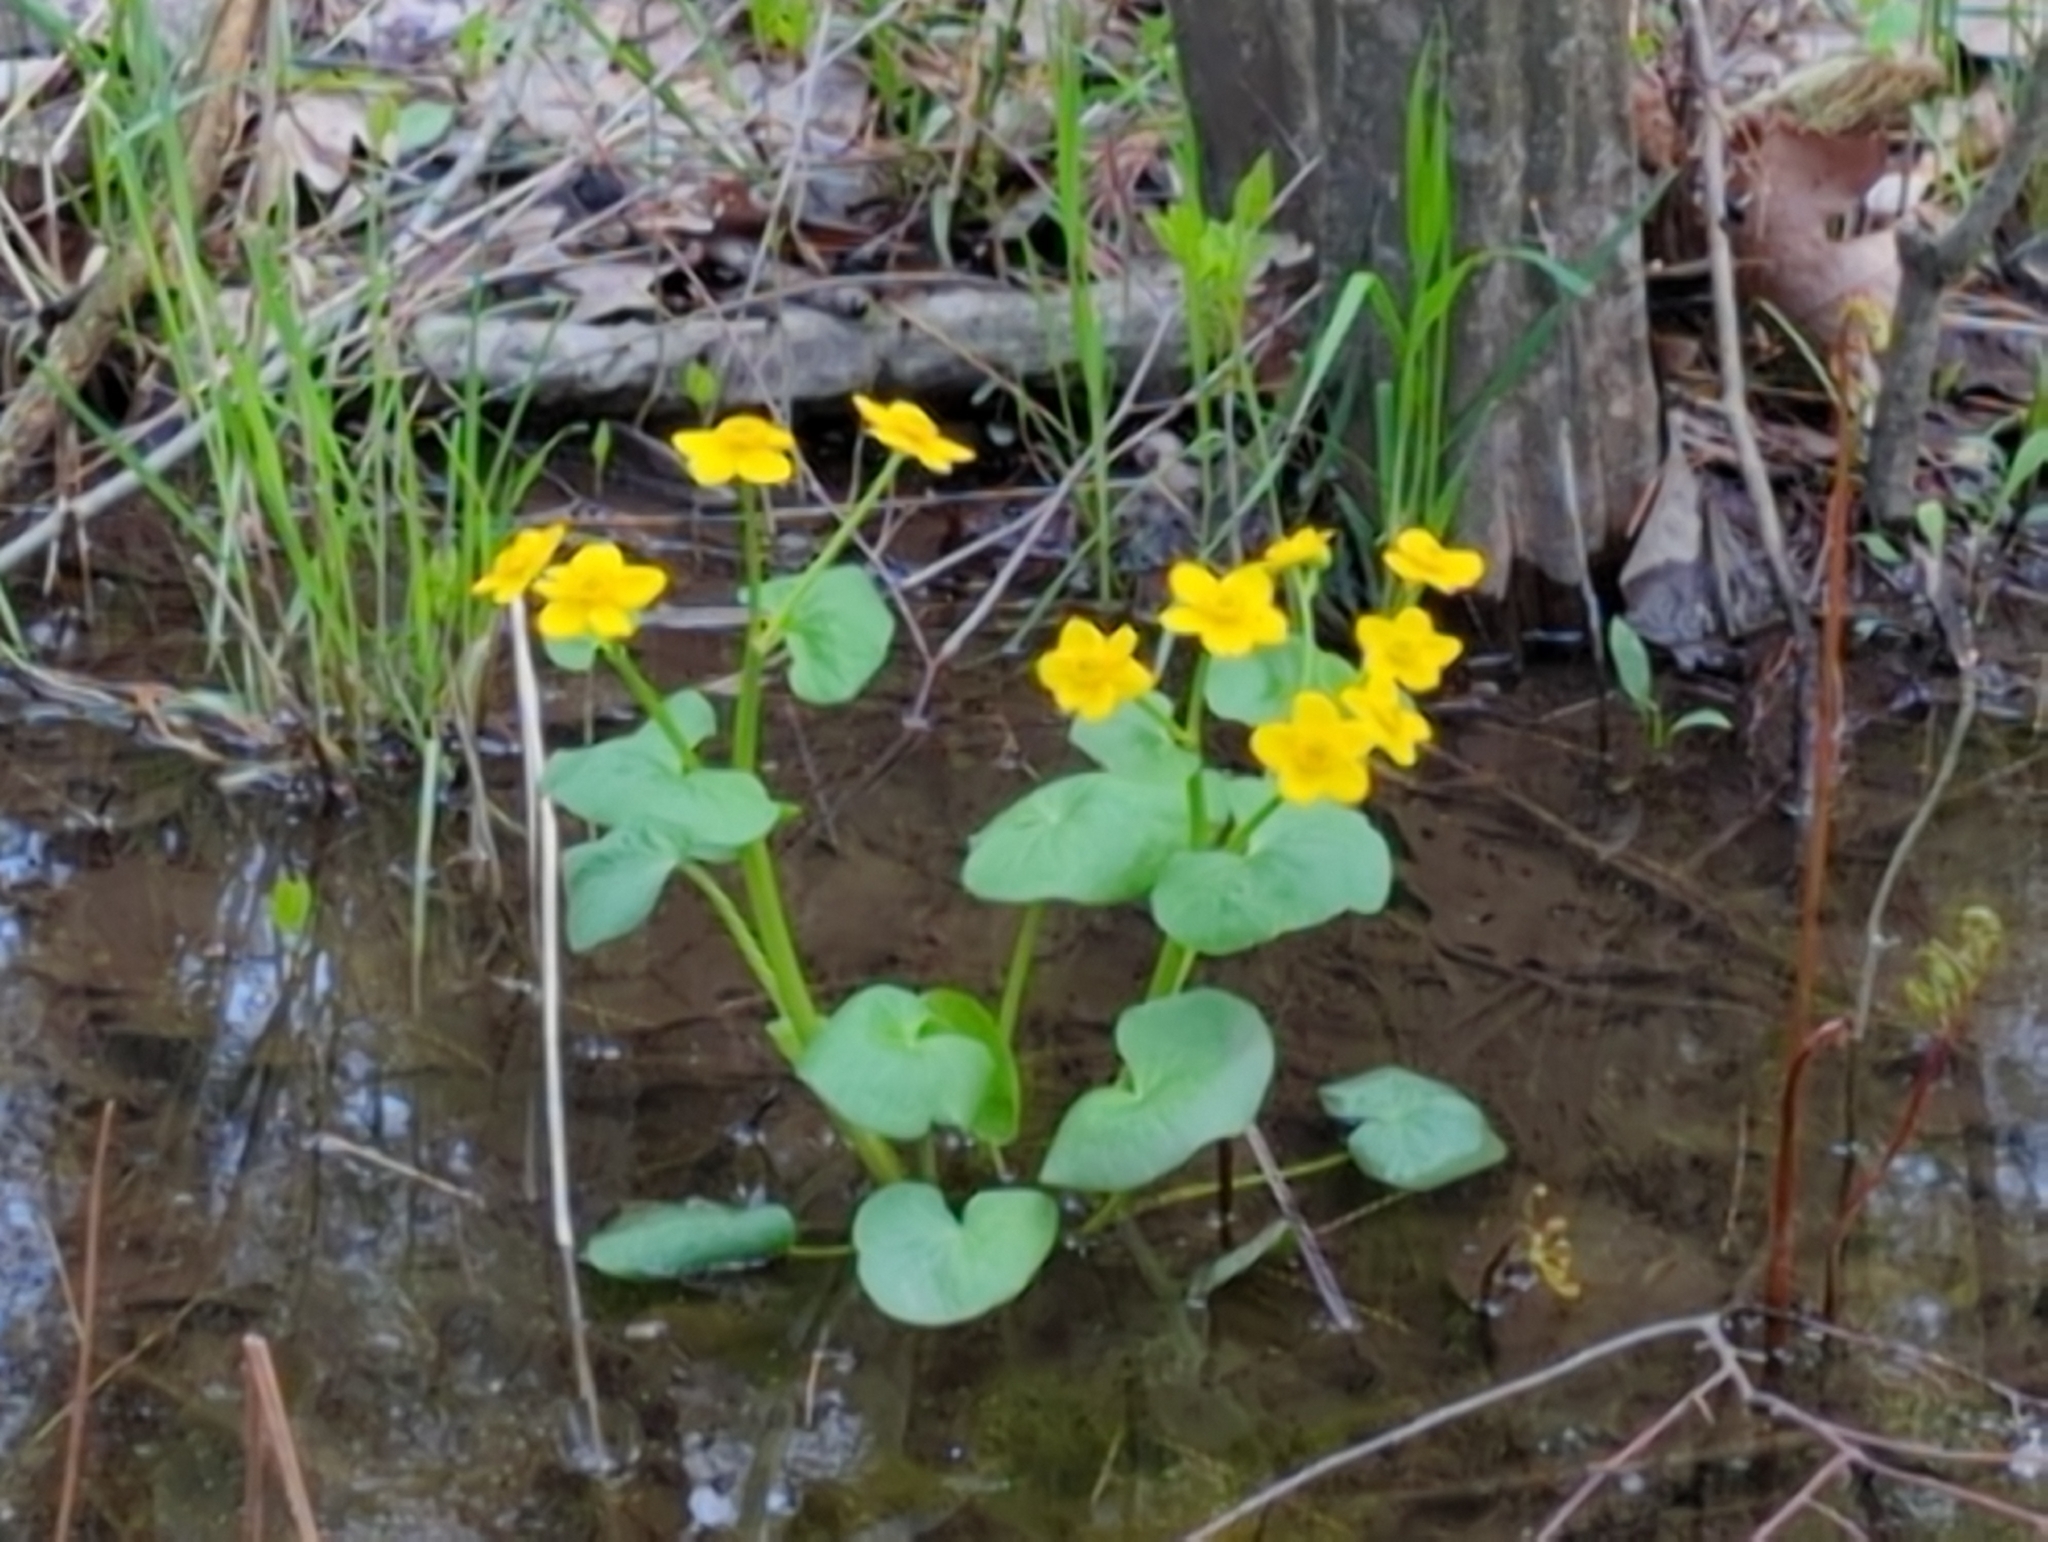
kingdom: Plantae
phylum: Tracheophyta
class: Magnoliopsida
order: Ranunculales
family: Ranunculaceae
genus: Caltha
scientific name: Caltha palustris
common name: Marsh marigold
